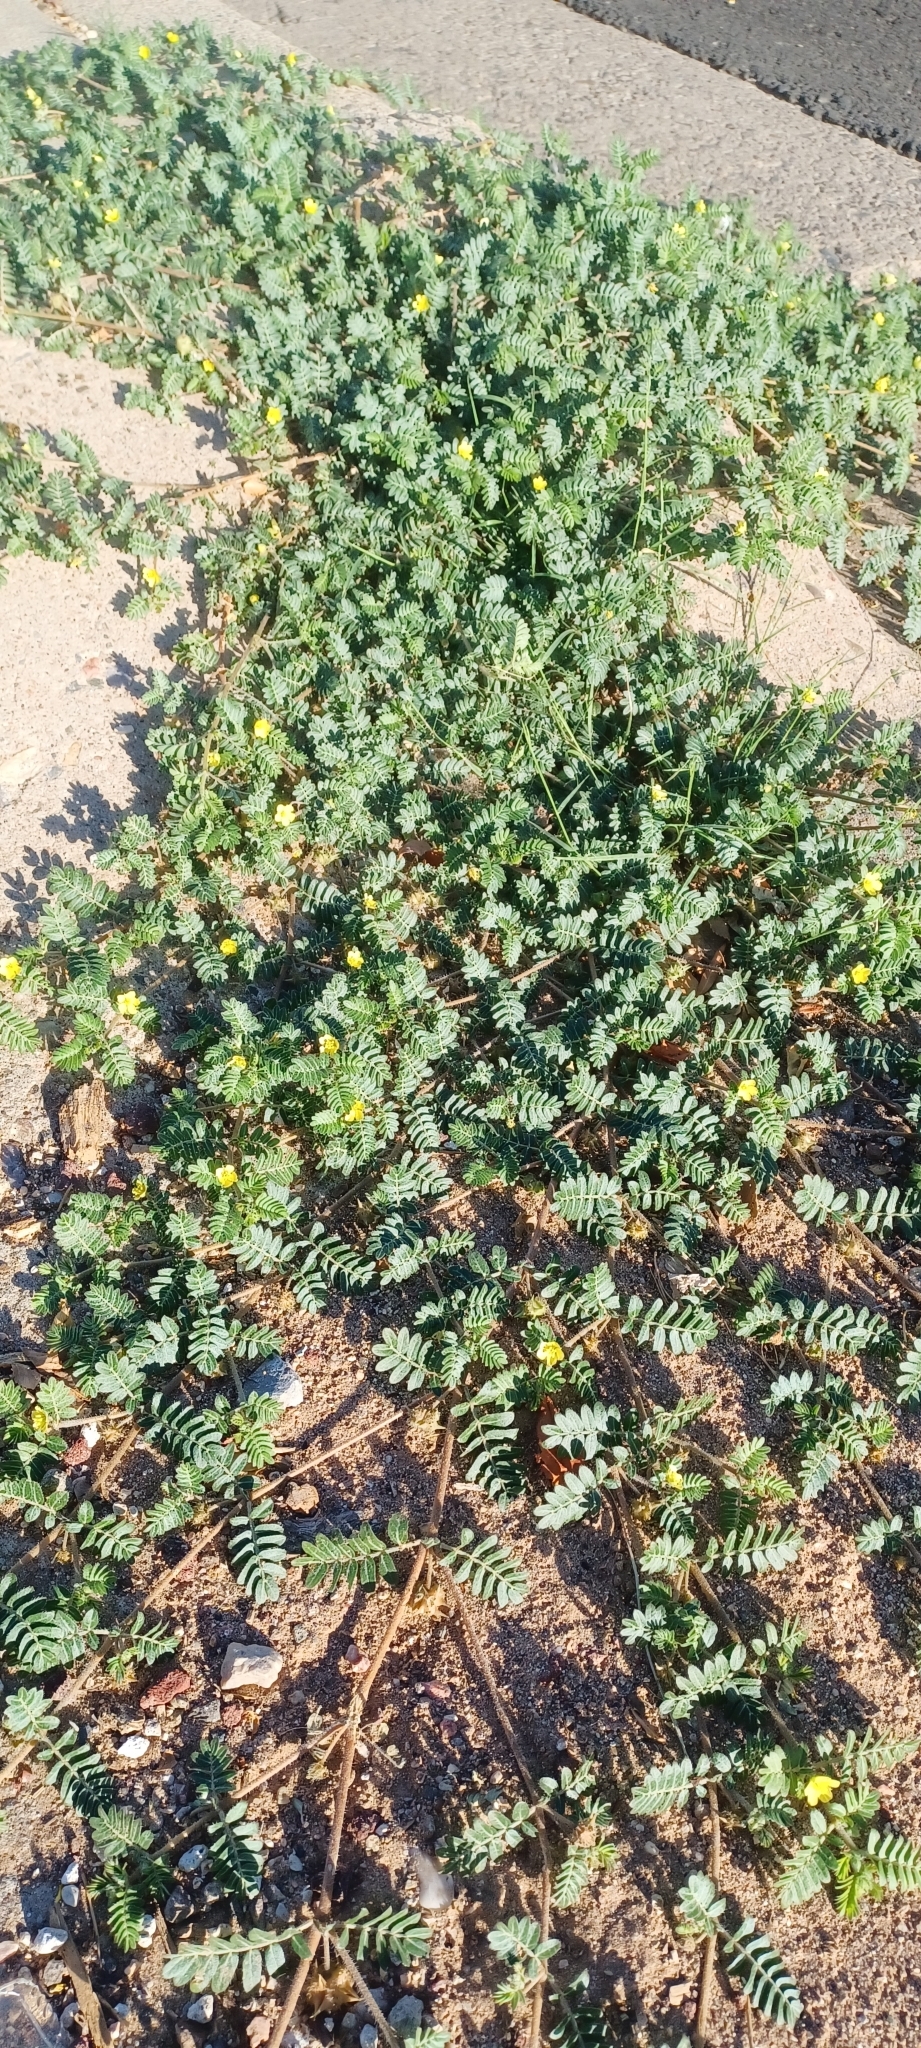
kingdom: Plantae
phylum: Tracheophyta
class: Magnoliopsida
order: Zygophyllales
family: Zygophyllaceae
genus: Tribulus
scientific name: Tribulus terrestris
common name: Puncturevine
